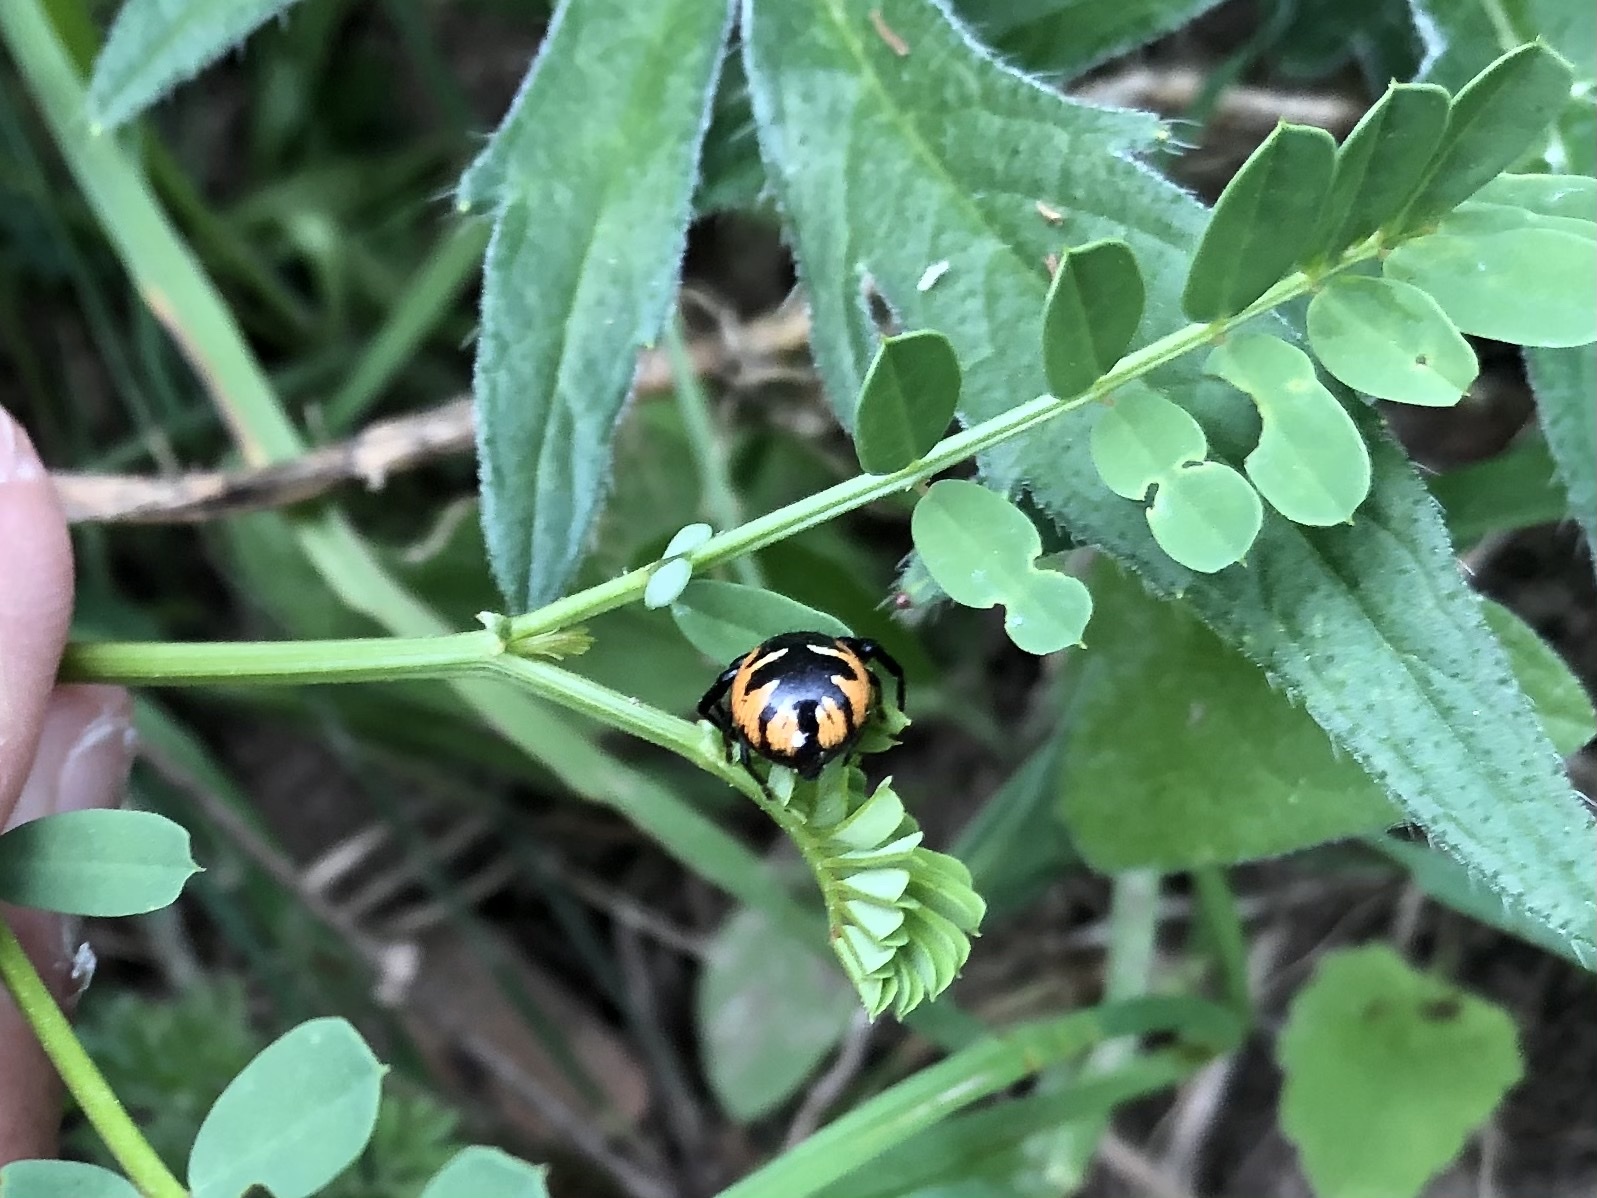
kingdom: Animalia
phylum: Arthropoda
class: Arachnida
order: Araneae
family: Thomisidae
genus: Synema
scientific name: Synema globosum
